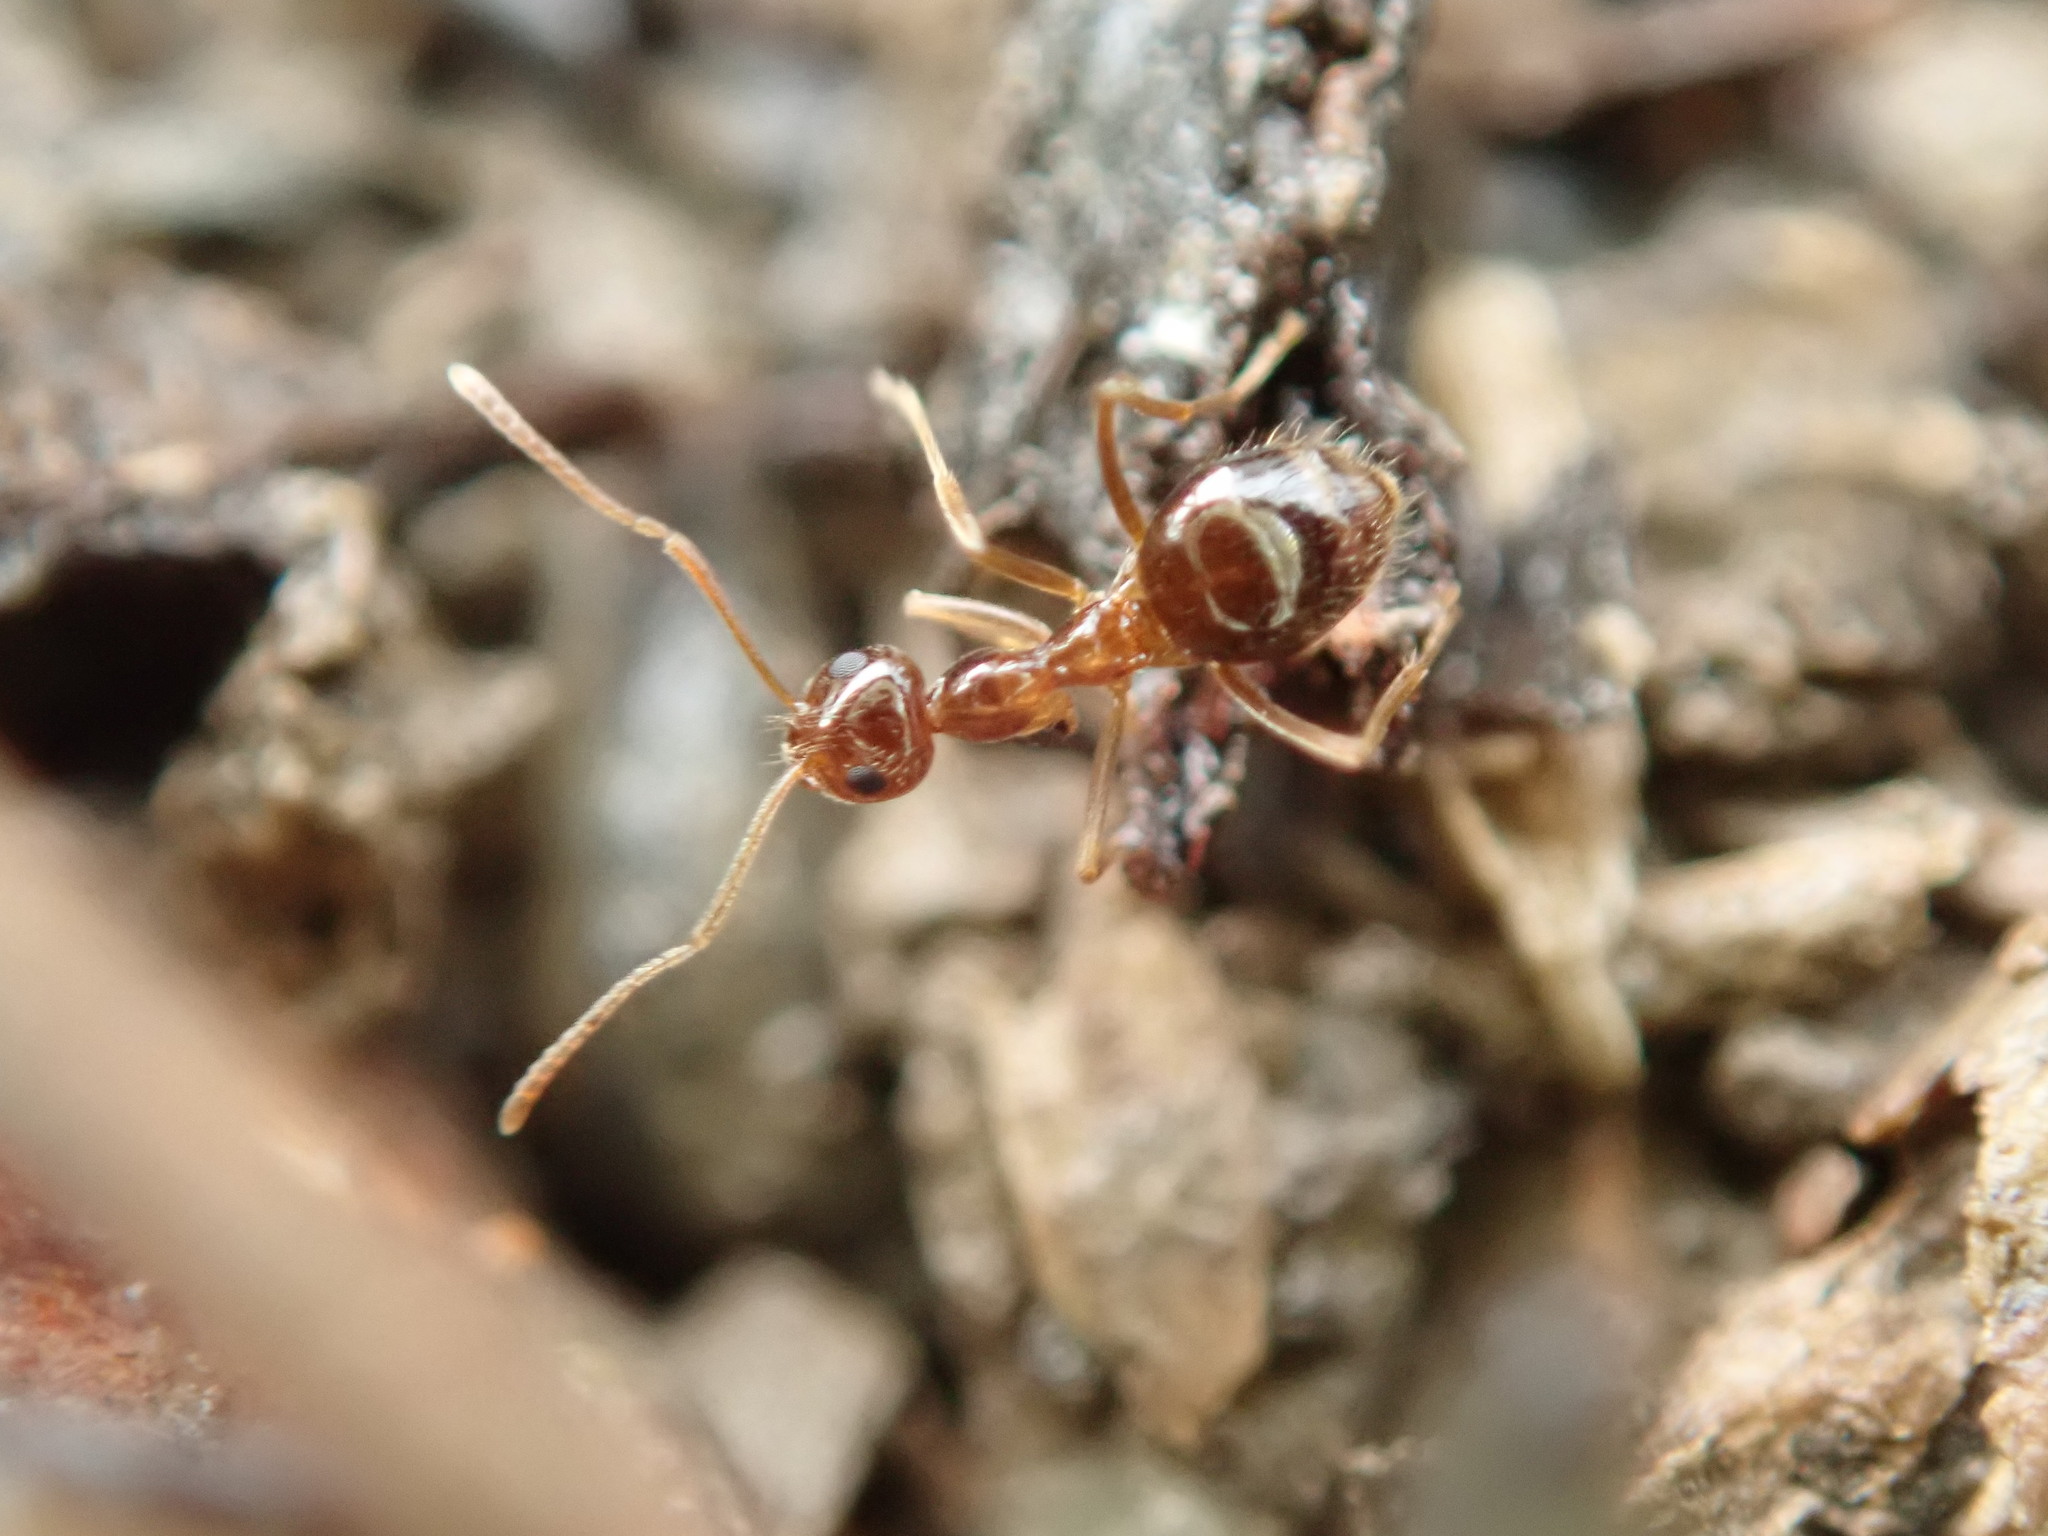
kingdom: Animalia
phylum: Arthropoda
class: Insecta
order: Hymenoptera
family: Formicidae
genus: Prenolepis
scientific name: Prenolepis imparis
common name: Small honey ant
